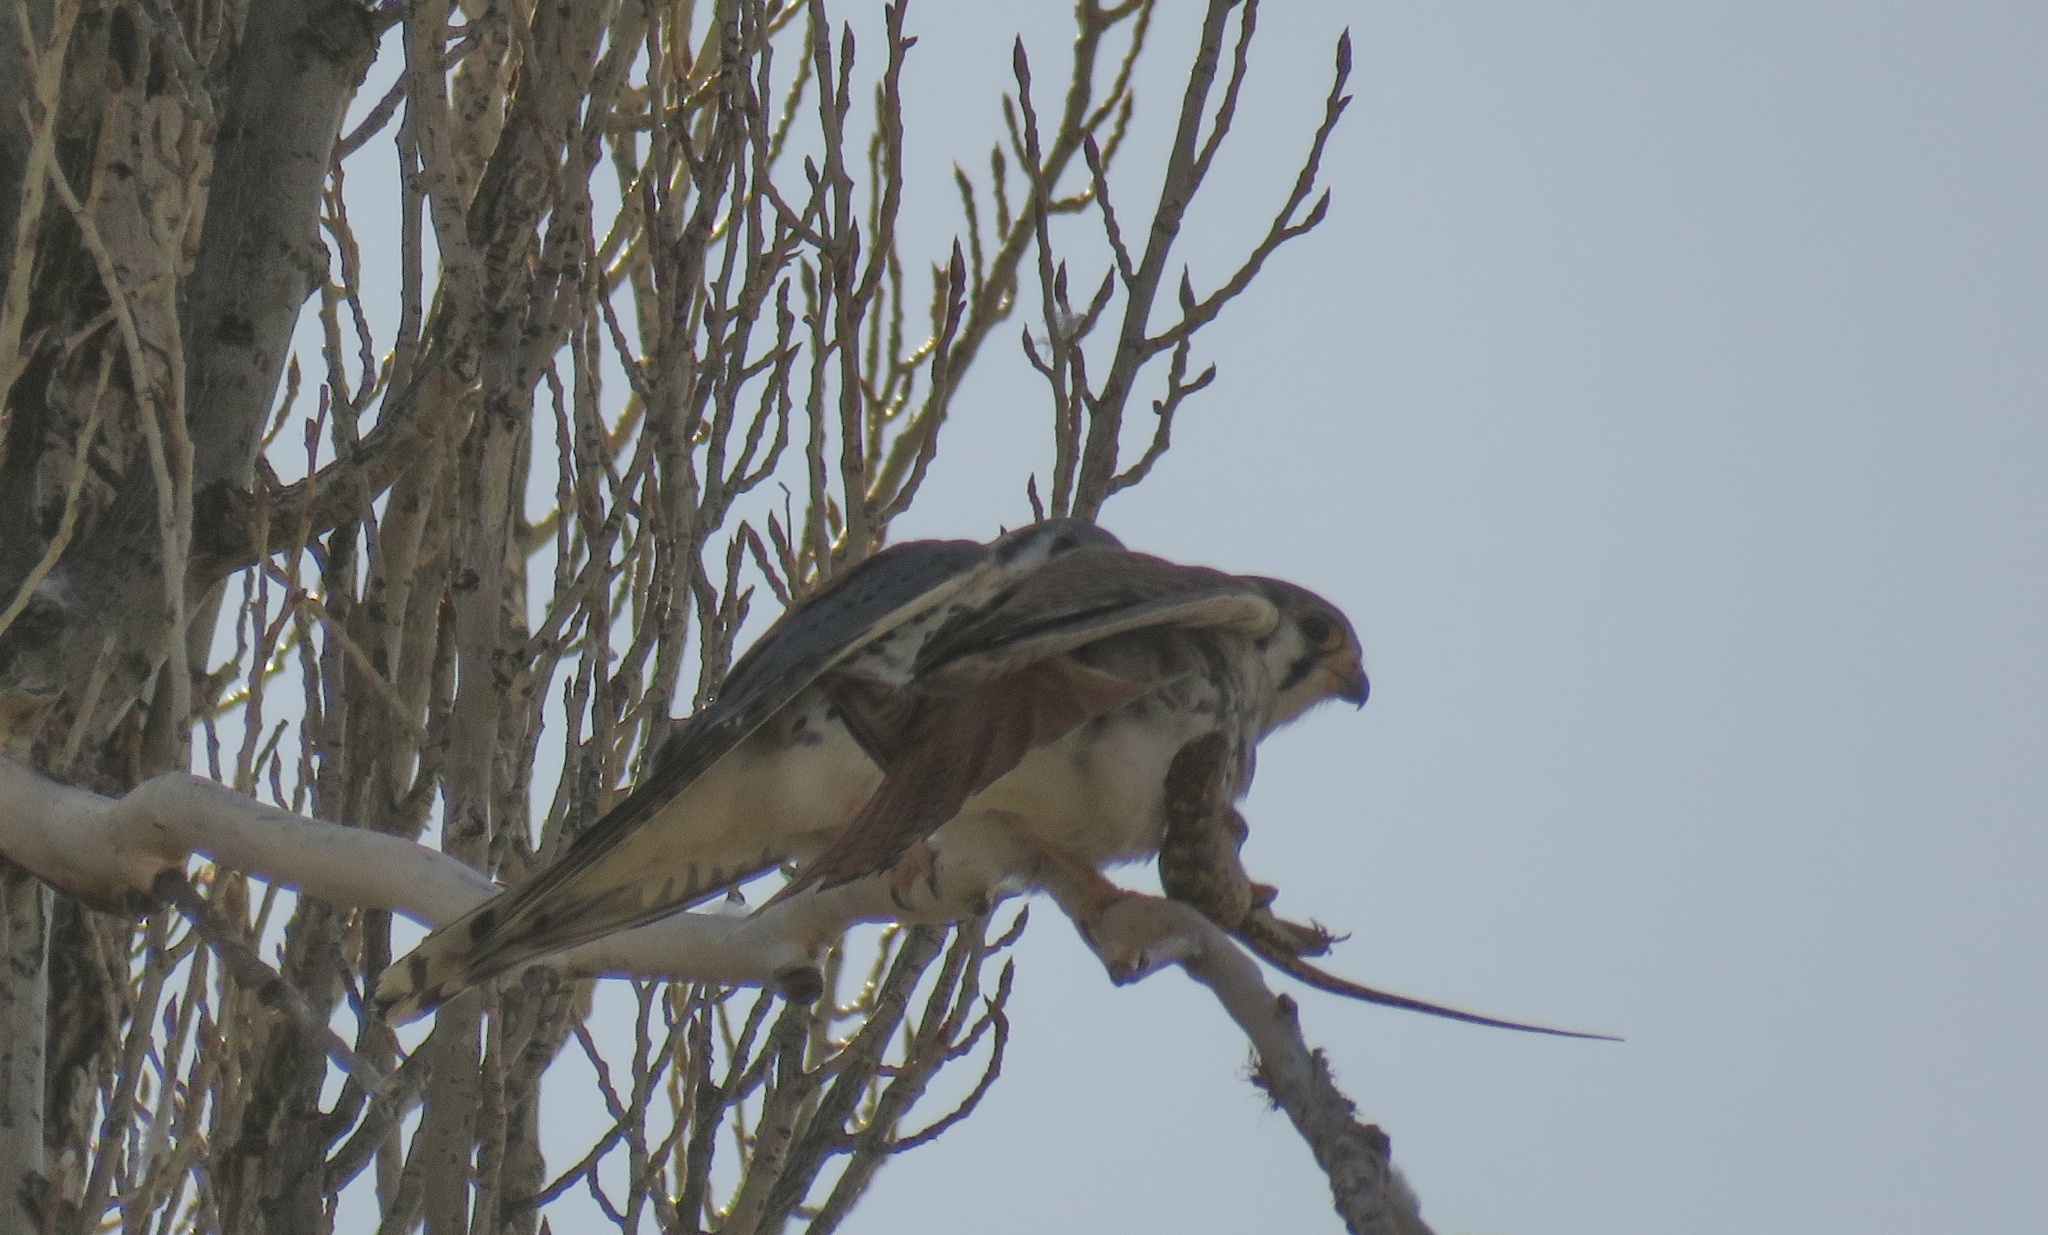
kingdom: Animalia
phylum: Chordata
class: Aves
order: Falconiformes
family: Falconidae
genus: Falco
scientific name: Falco sparverius
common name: American kestrel
